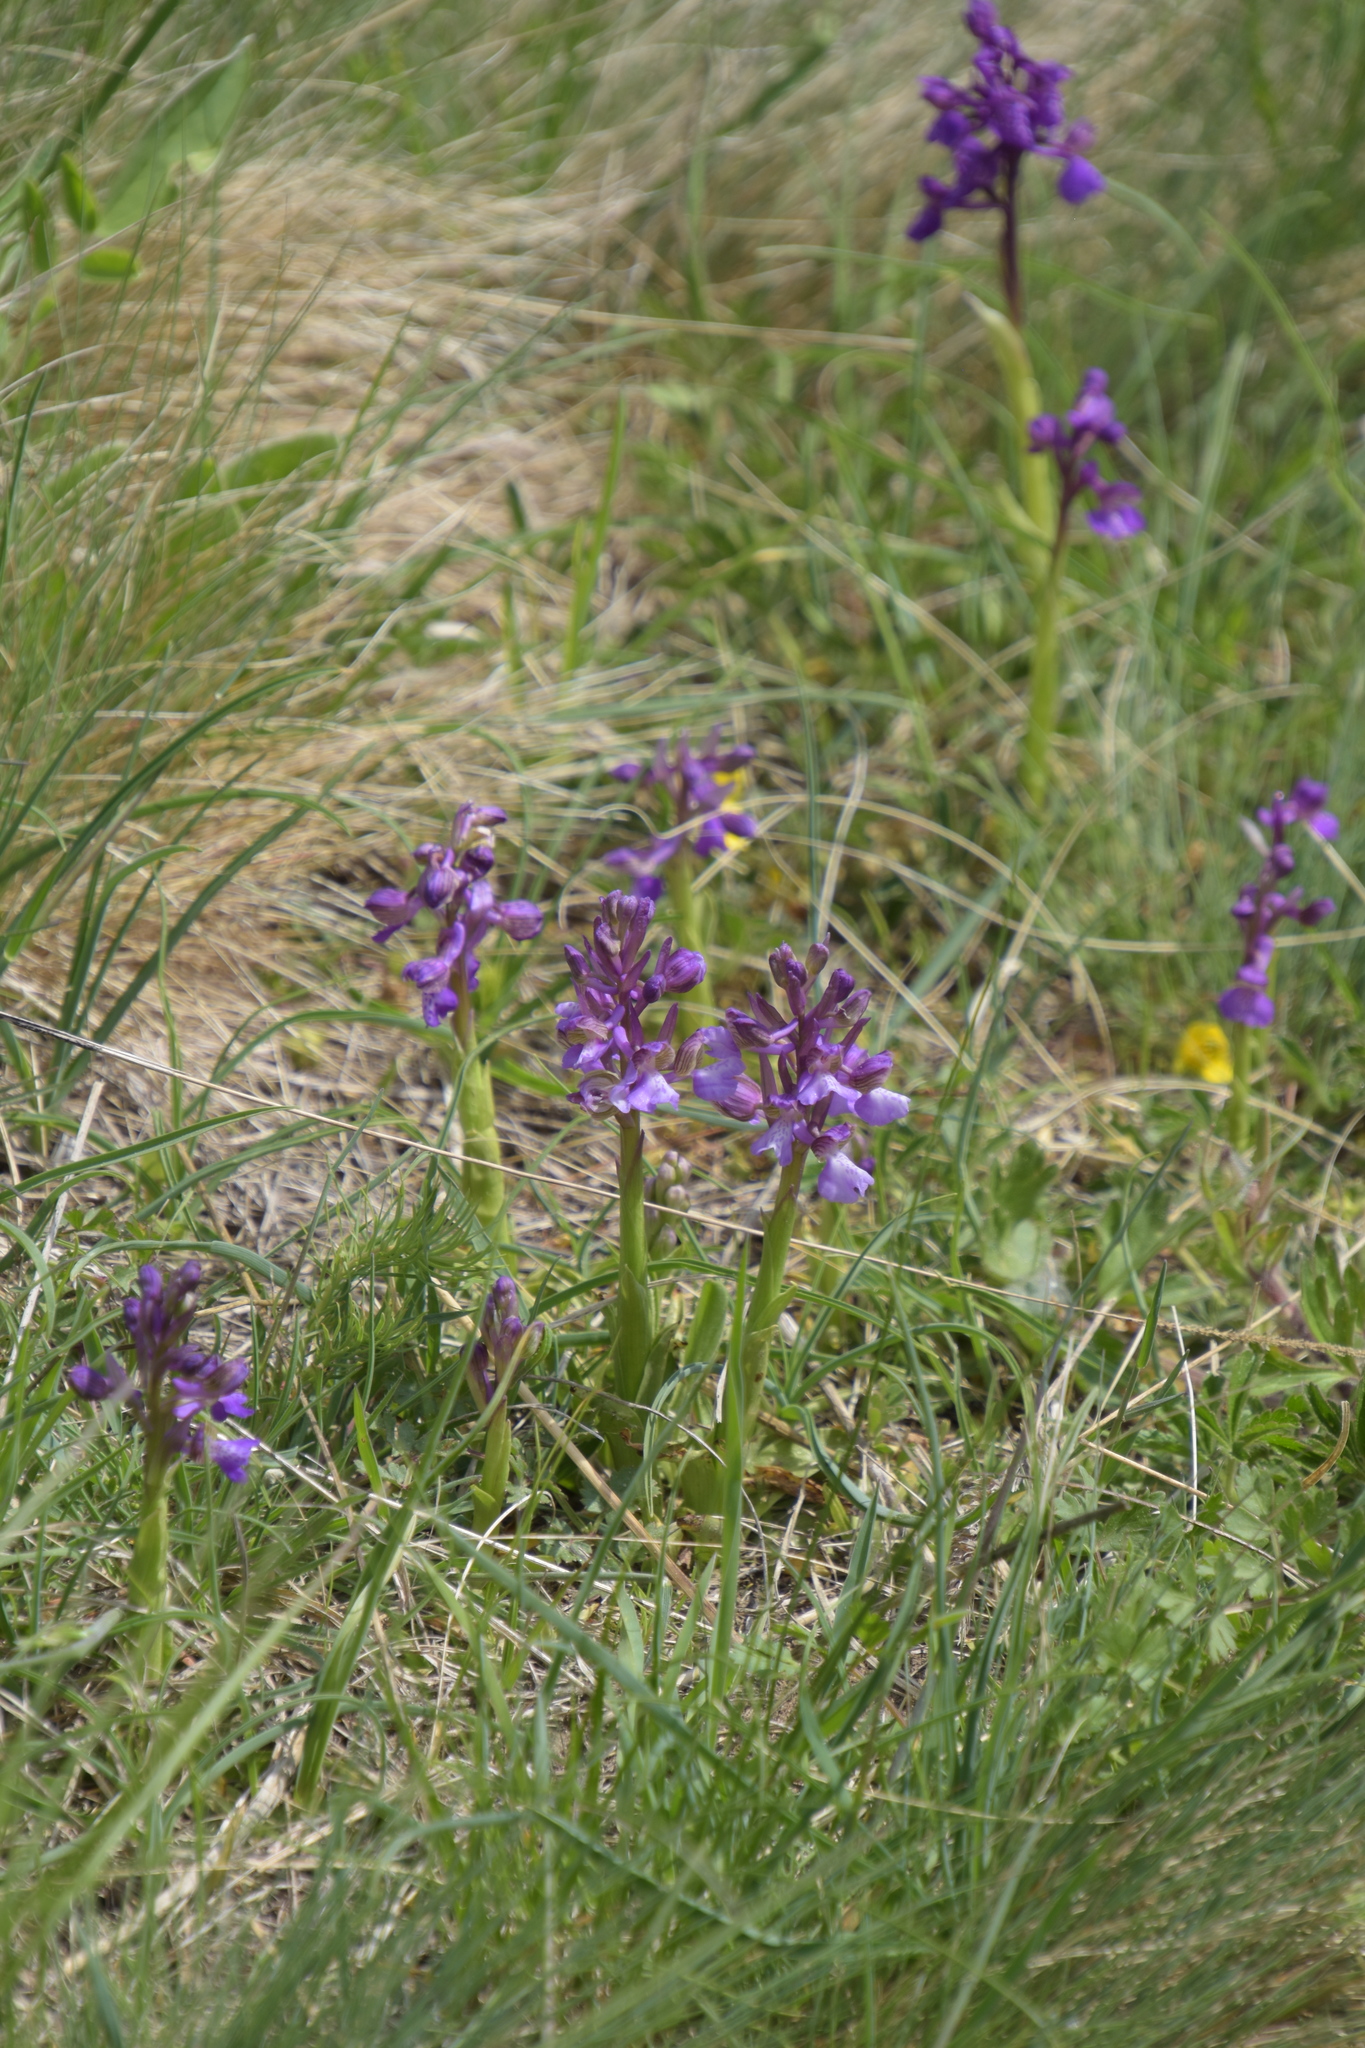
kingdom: Plantae
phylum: Tracheophyta
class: Liliopsida
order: Asparagales
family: Orchidaceae
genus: Anacamptis
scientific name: Anacamptis morio
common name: Green-winged orchid
